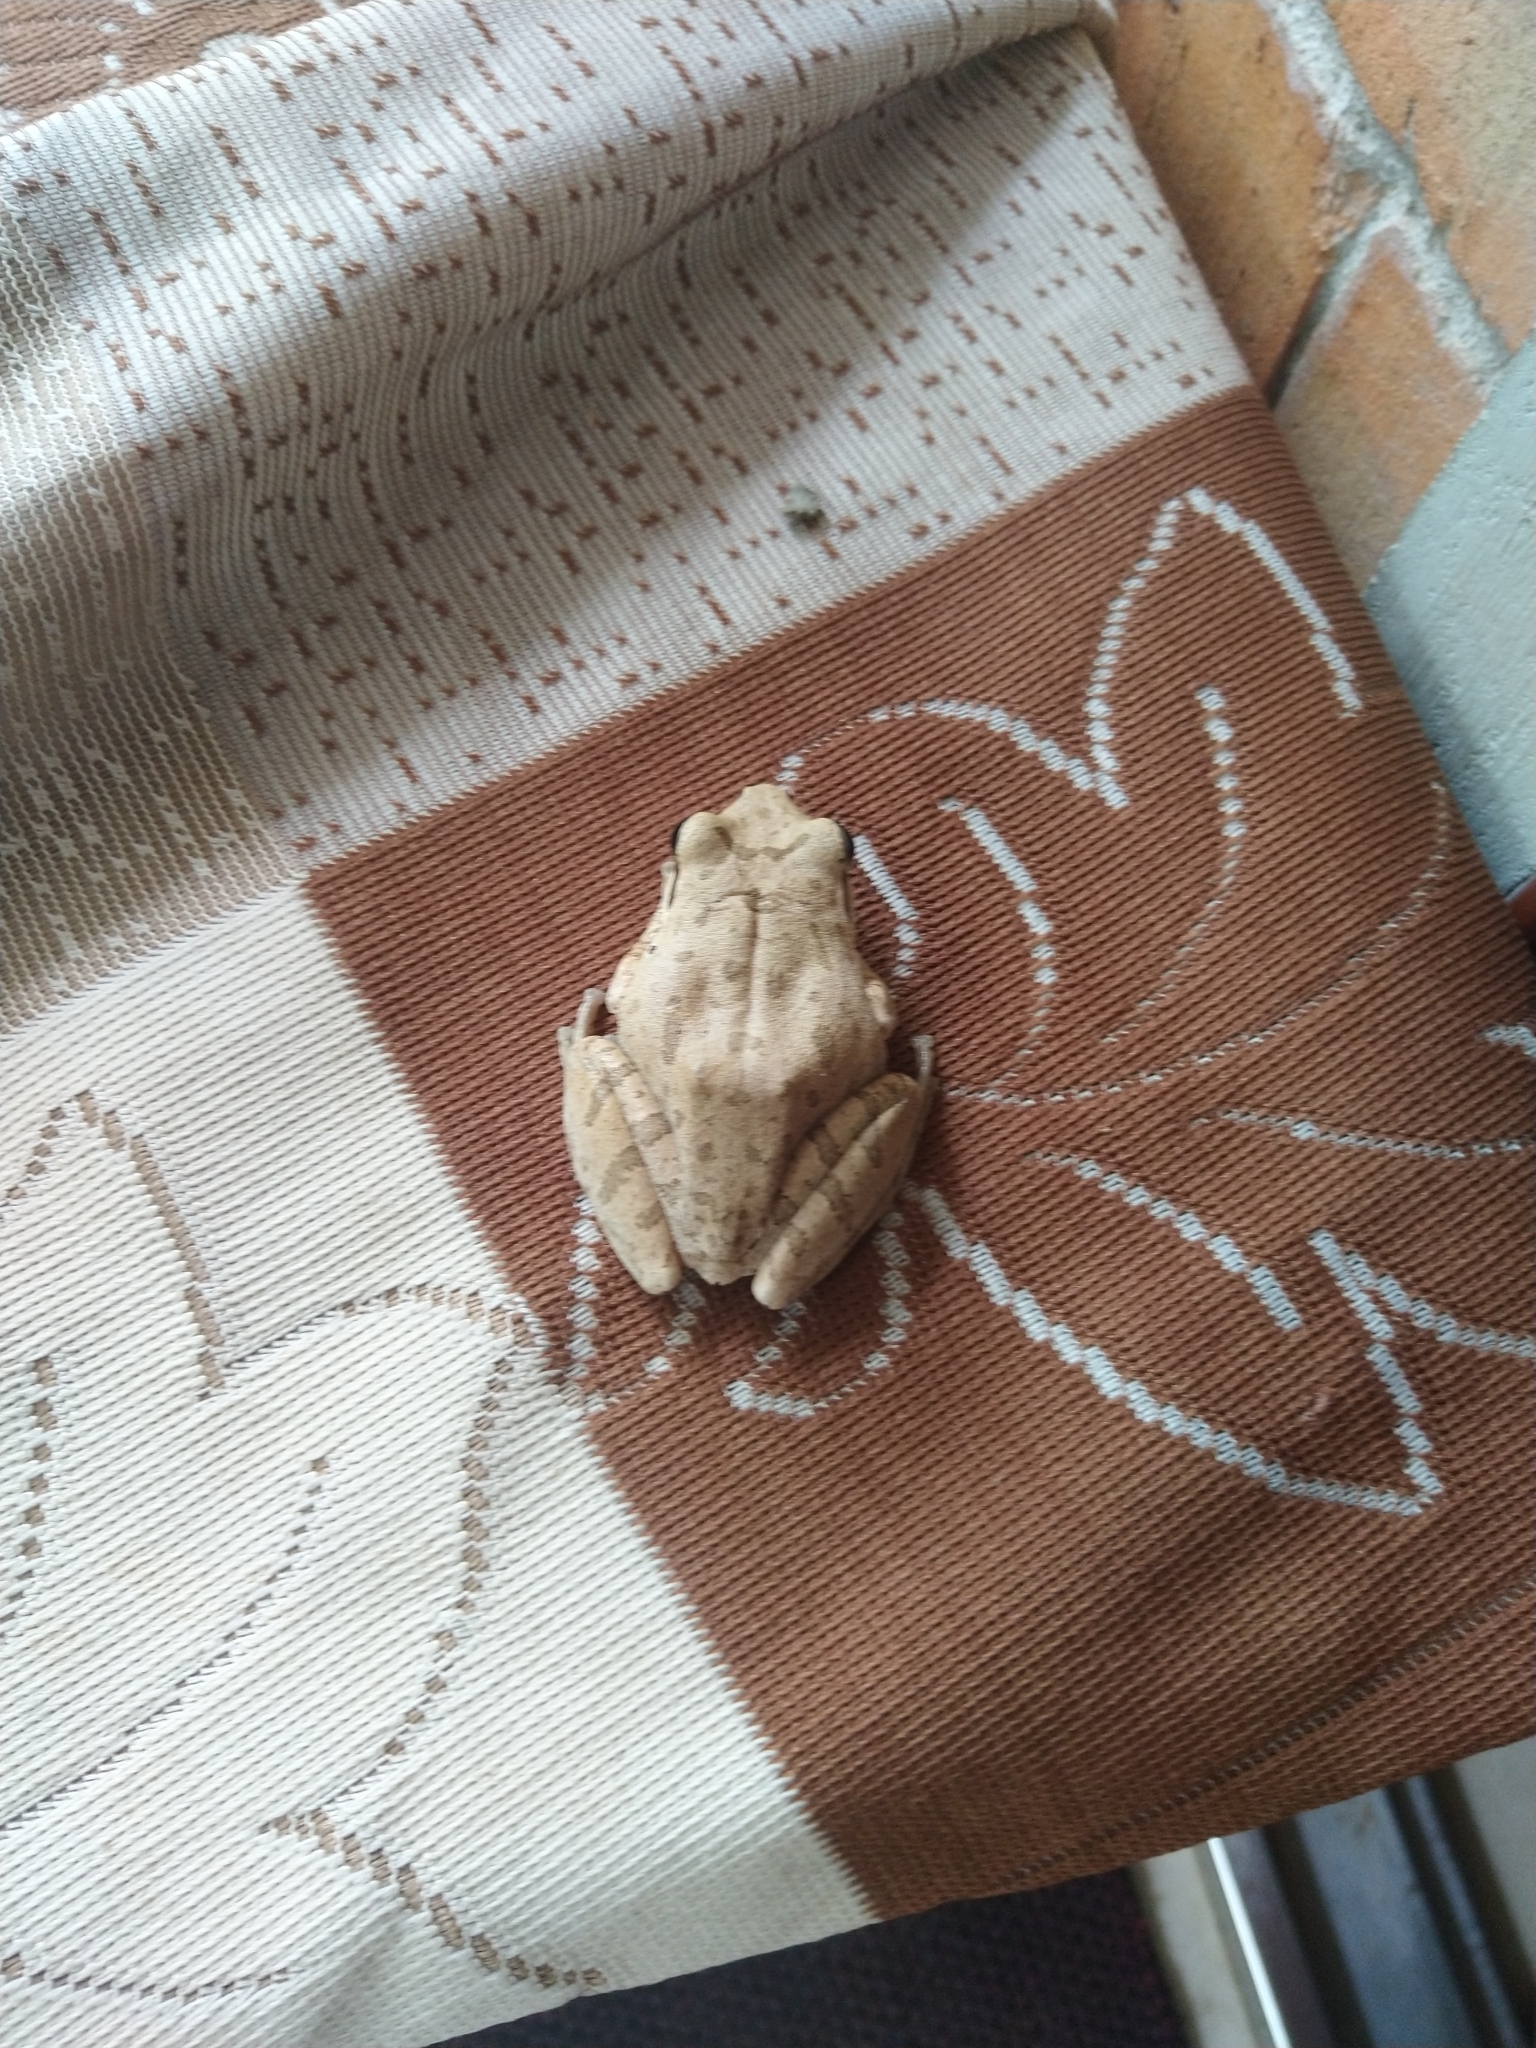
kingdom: Animalia
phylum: Chordata
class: Amphibia
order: Anura
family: Rhacophoridae
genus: Polypedates
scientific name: Polypedates maculatus
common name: Himalayan tree frog
